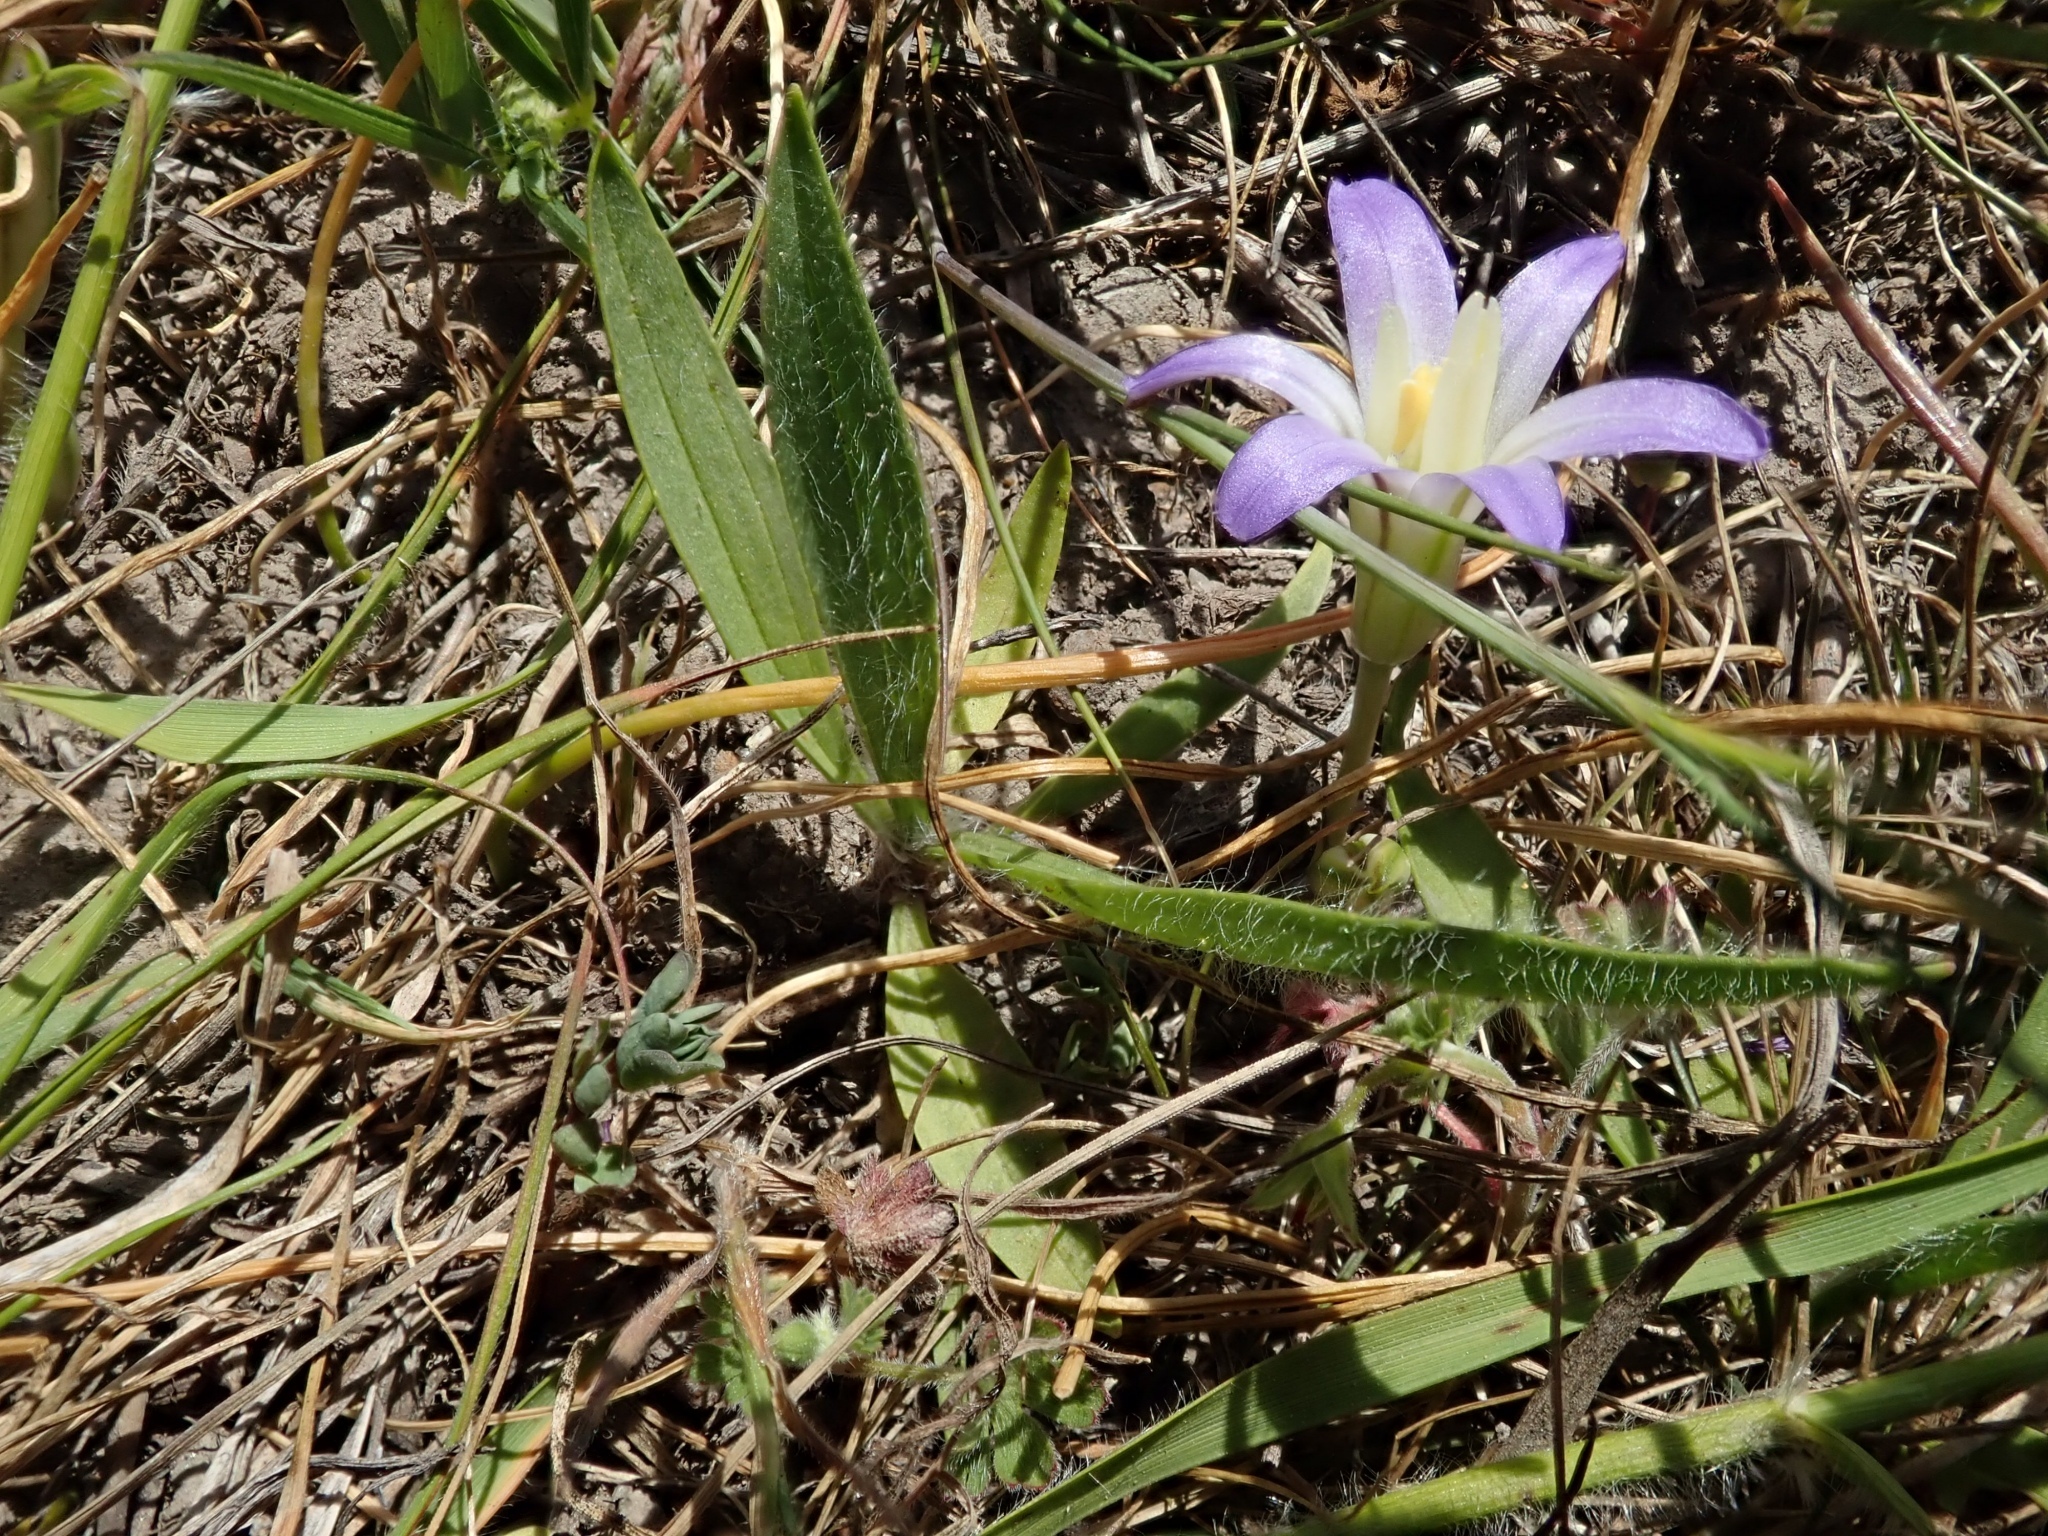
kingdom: Plantae
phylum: Tracheophyta
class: Liliopsida
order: Asparagales
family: Asparagaceae
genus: Brodiaea
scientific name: Brodiaea terrestris
